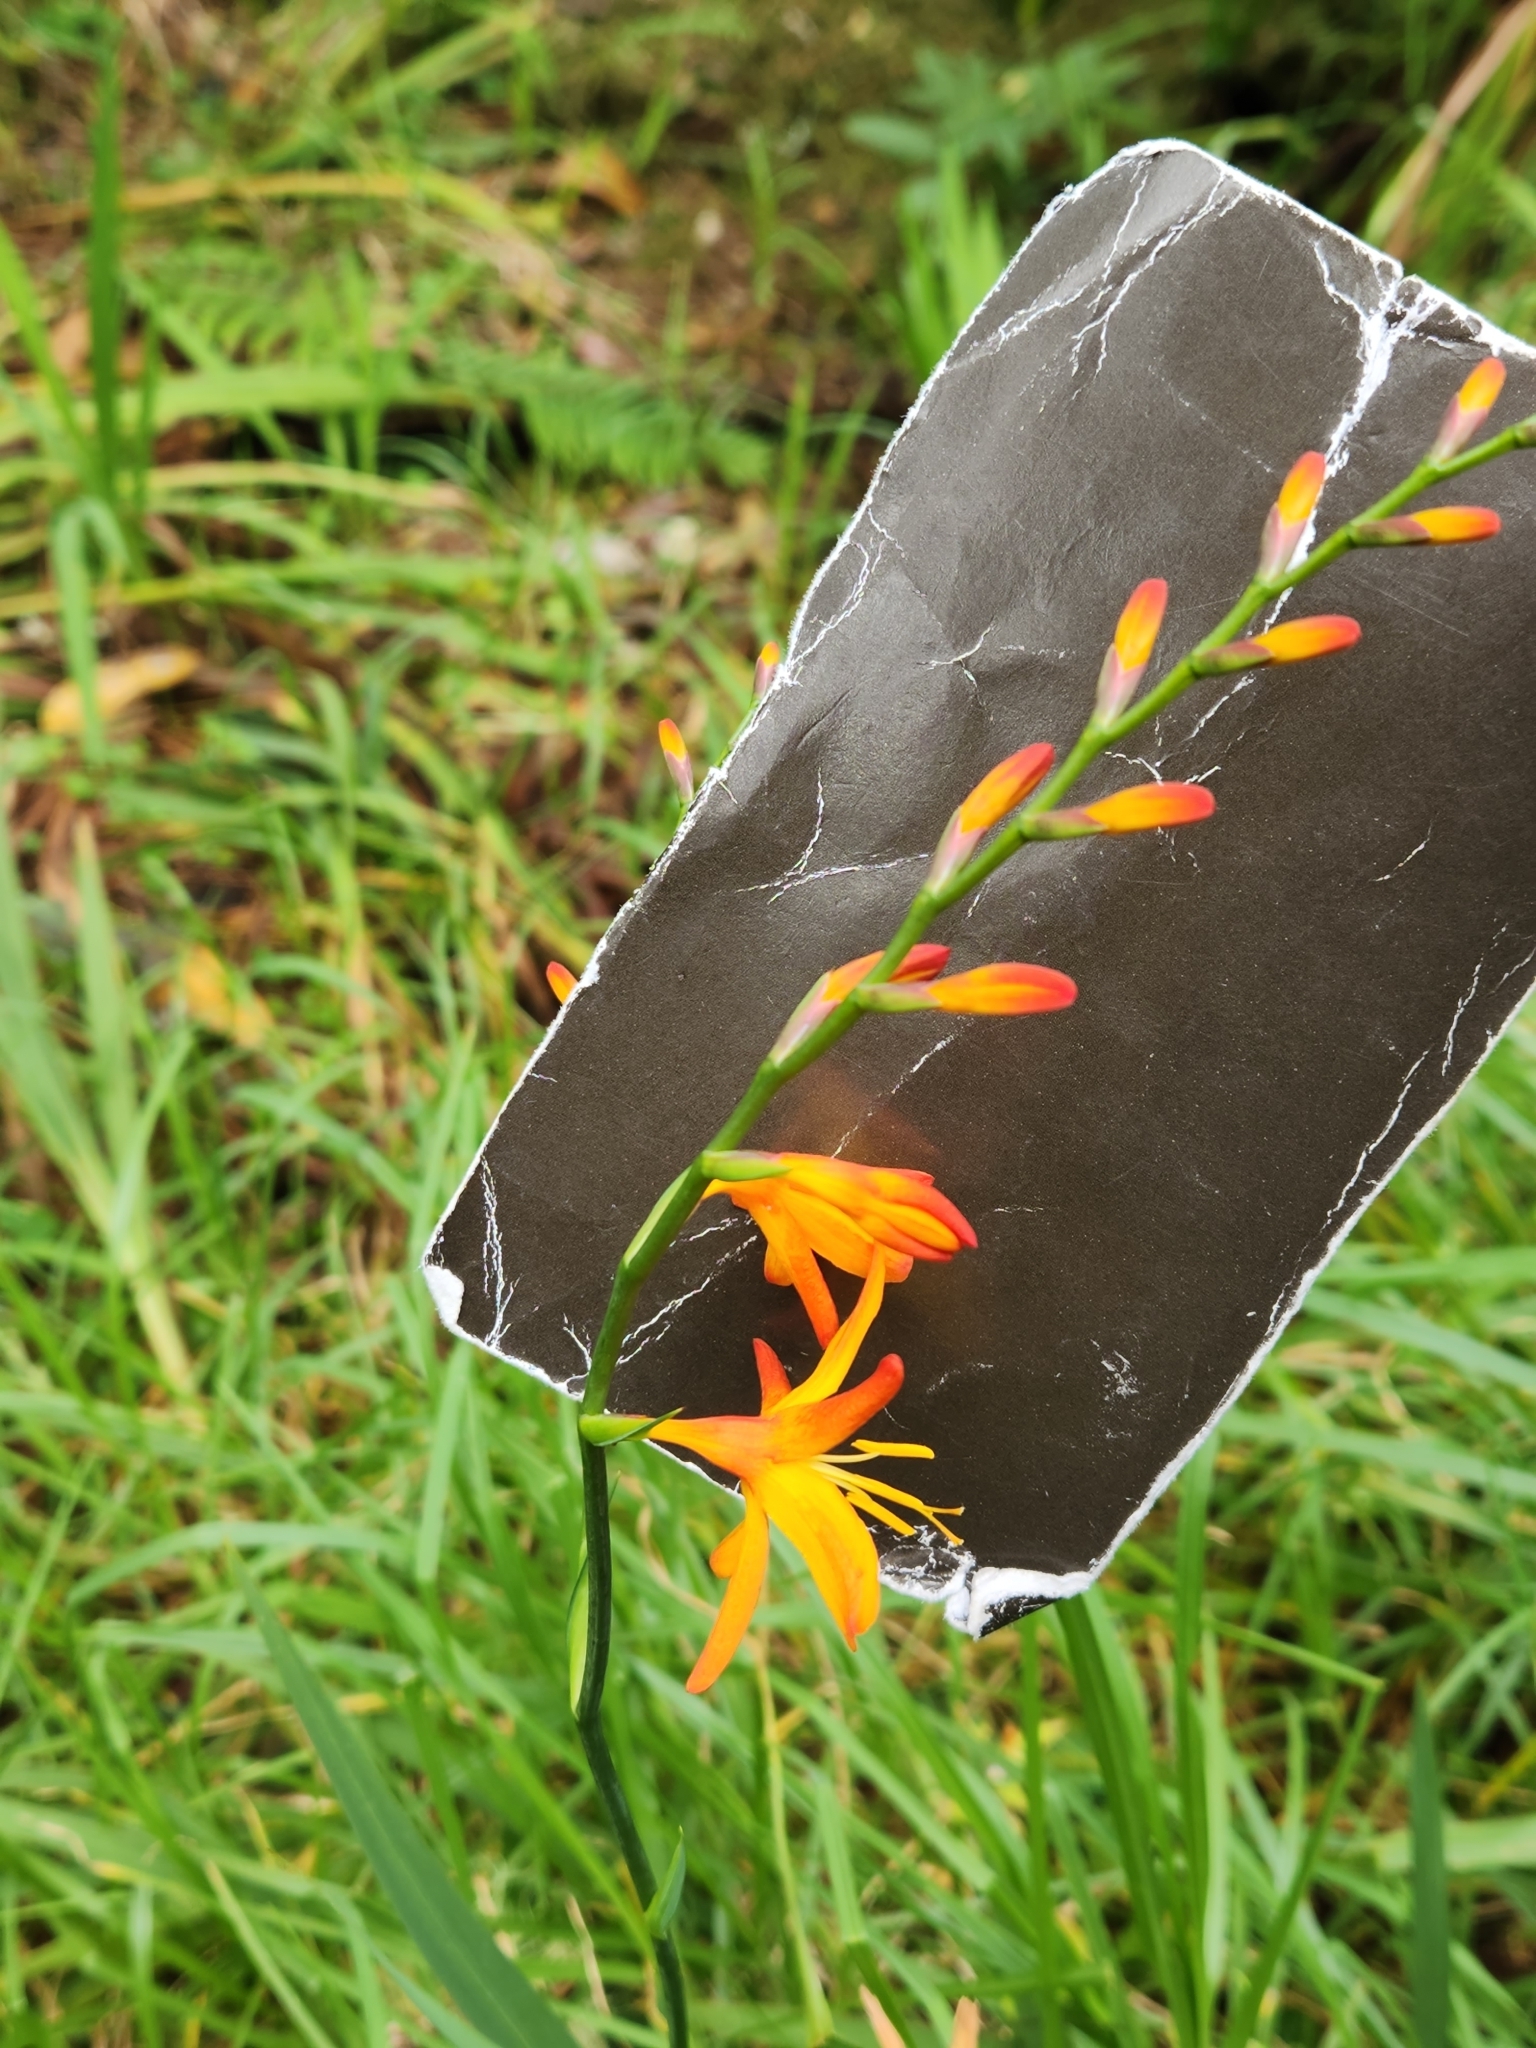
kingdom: Plantae
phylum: Tracheophyta
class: Liliopsida
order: Asparagales
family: Iridaceae
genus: Crocosmia
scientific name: Crocosmia crocosmiiflora
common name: Montbretia
